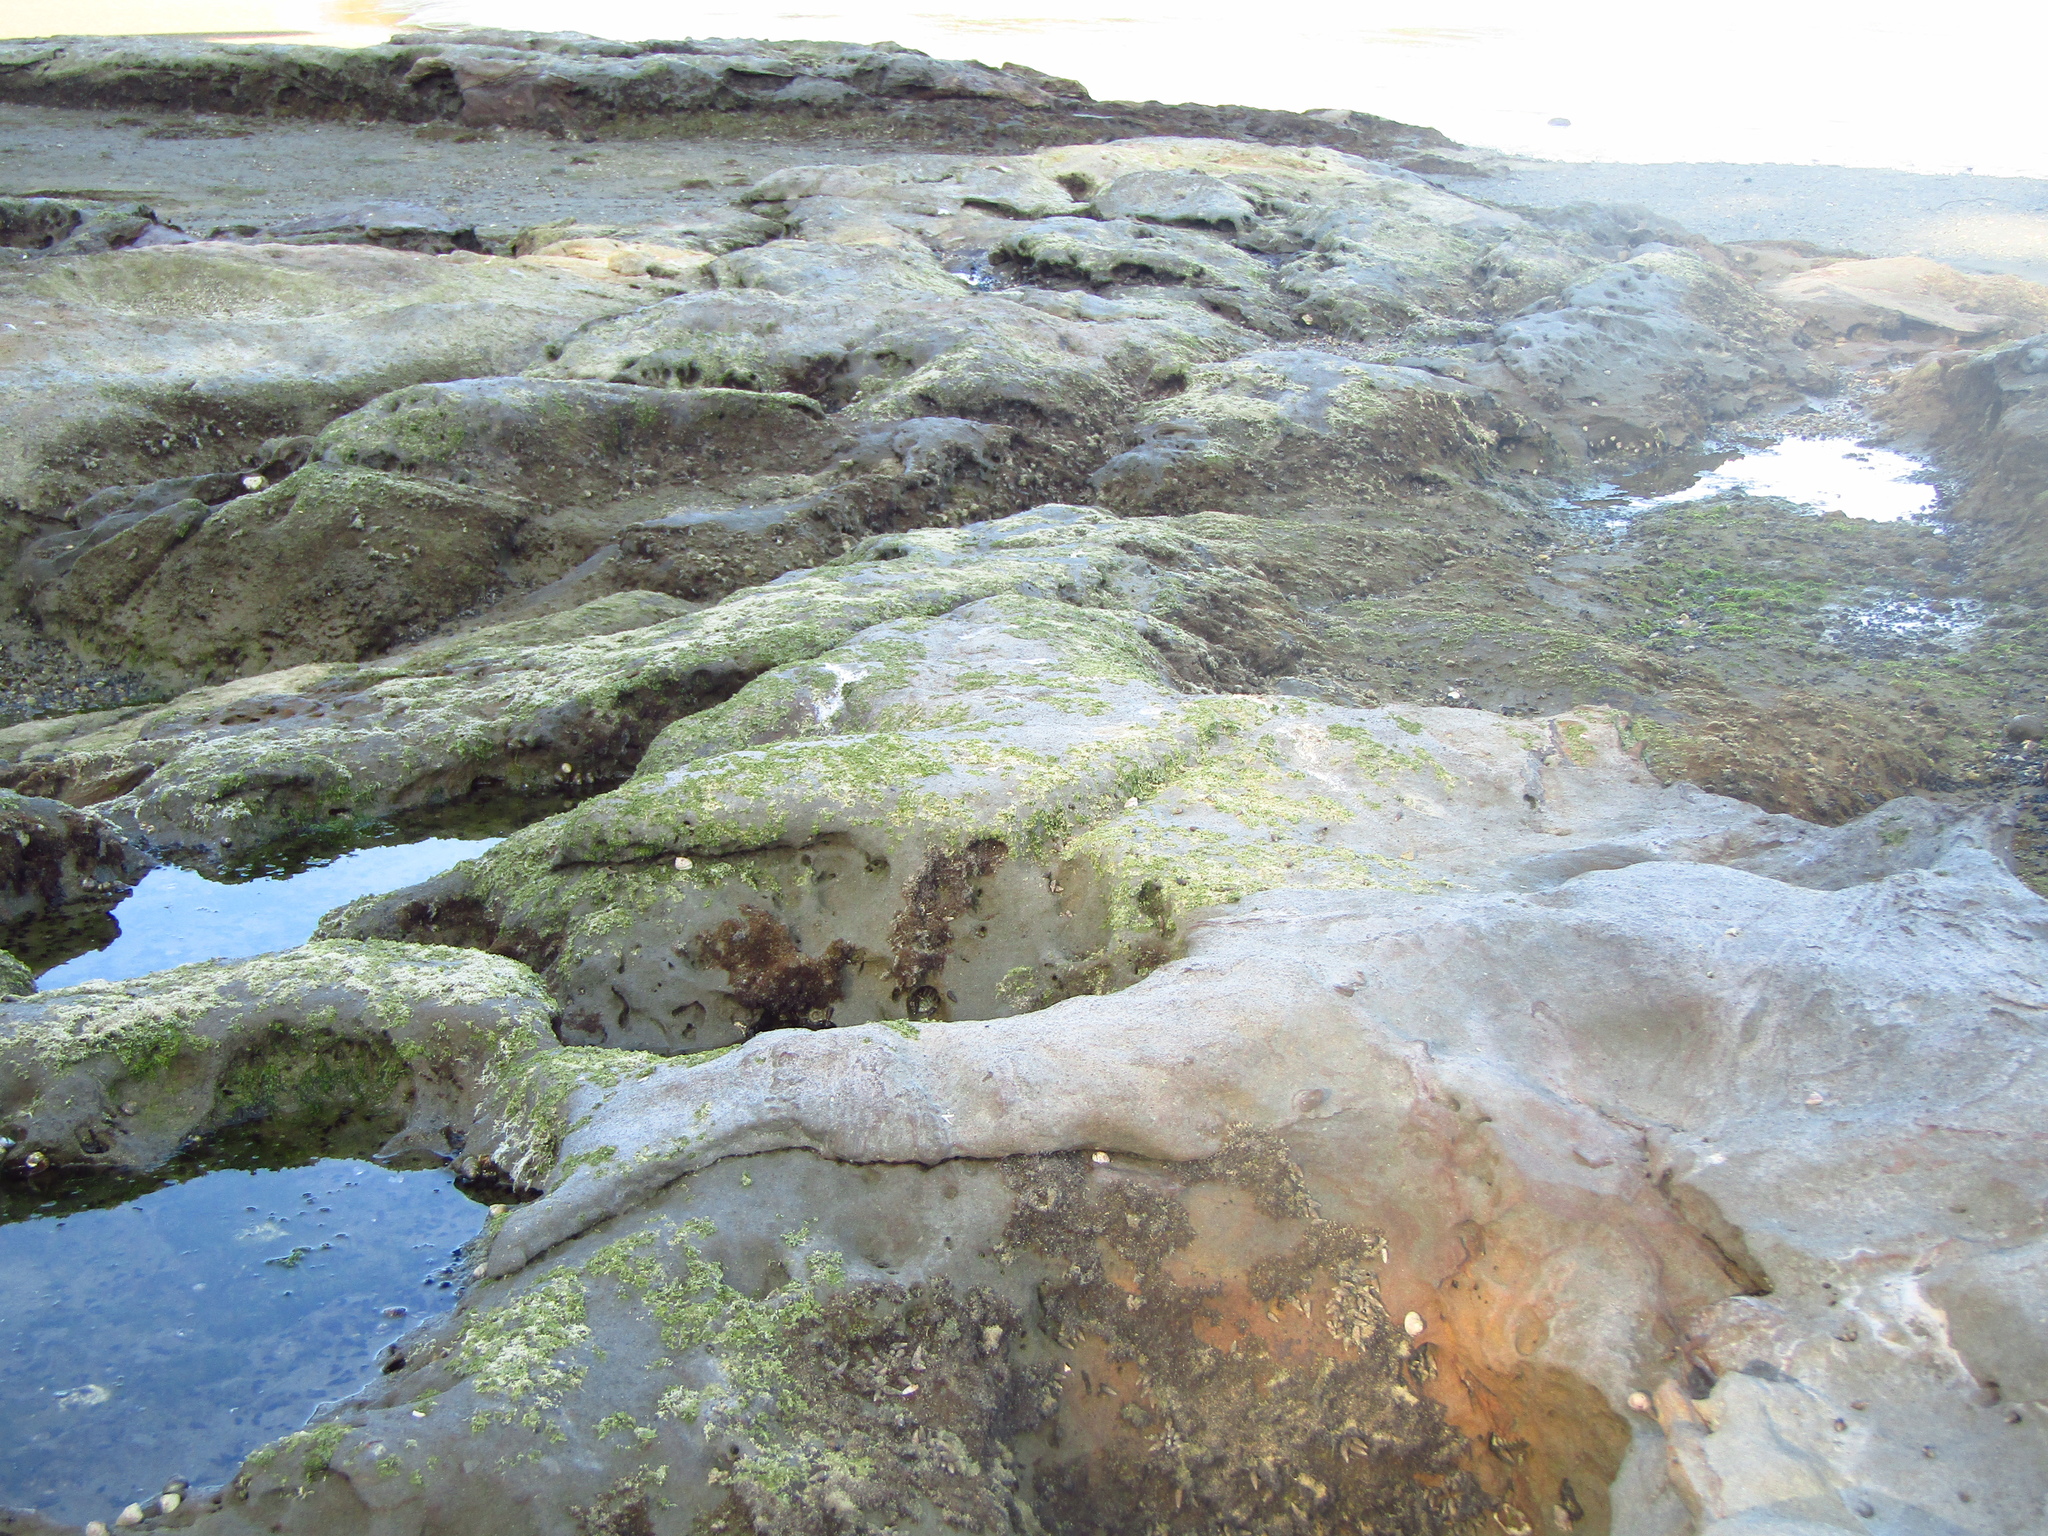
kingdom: Animalia
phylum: Mollusca
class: Gastropoda
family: Batillariidae
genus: Zeacumantus
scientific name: Zeacumantus subcarinatus
